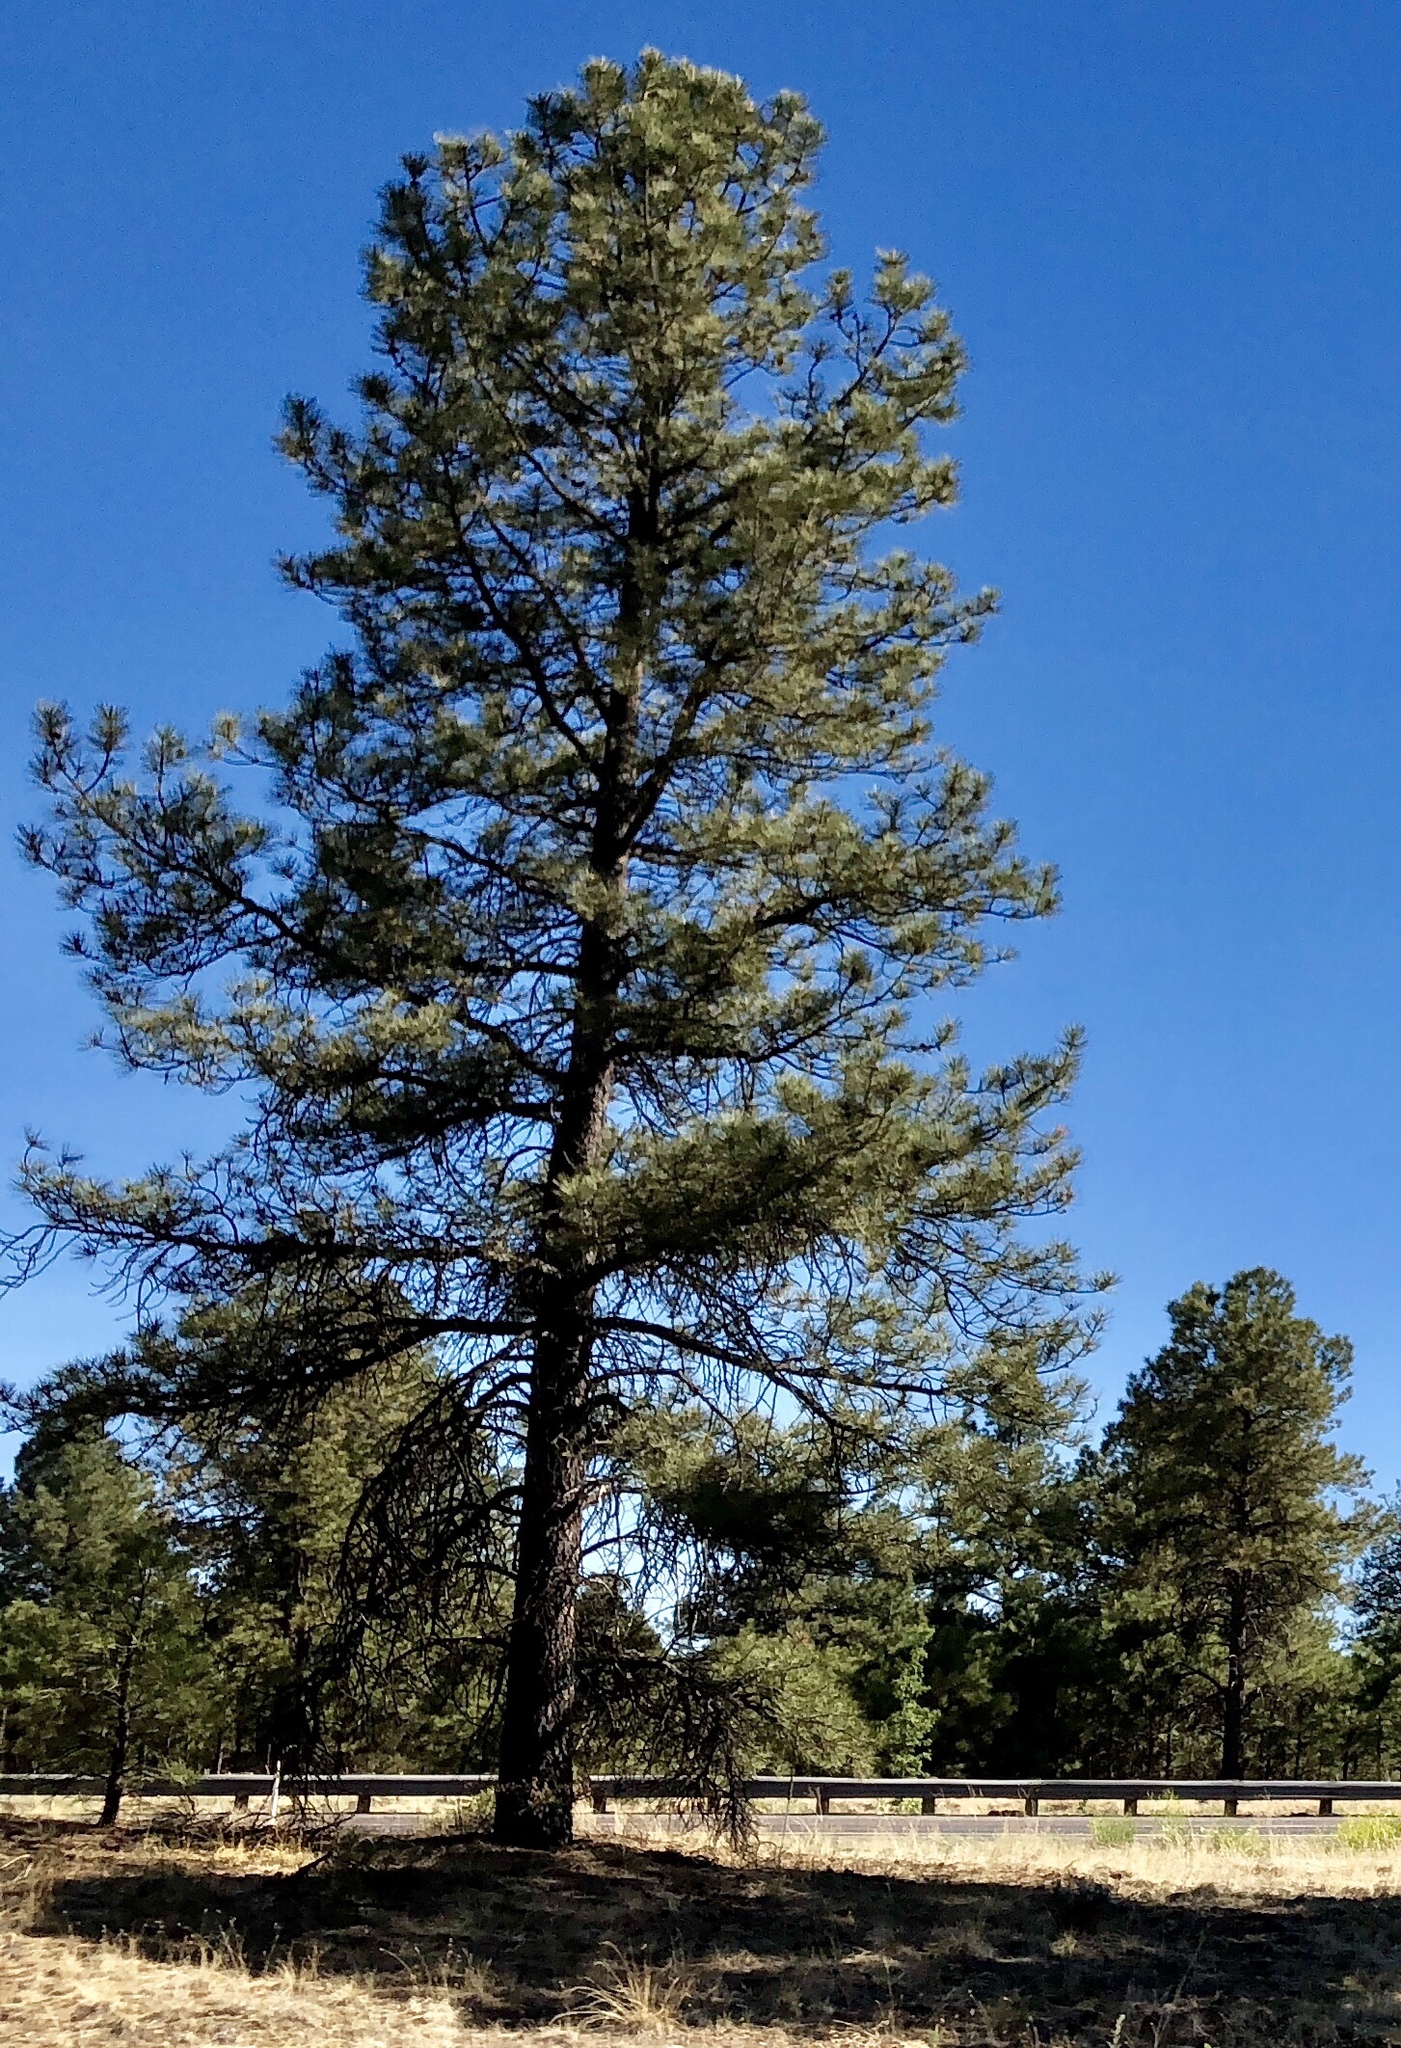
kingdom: Plantae
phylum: Tracheophyta
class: Pinopsida
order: Pinales
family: Pinaceae
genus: Pinus
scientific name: Pinus ponderosa
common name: Western yellow-pine
